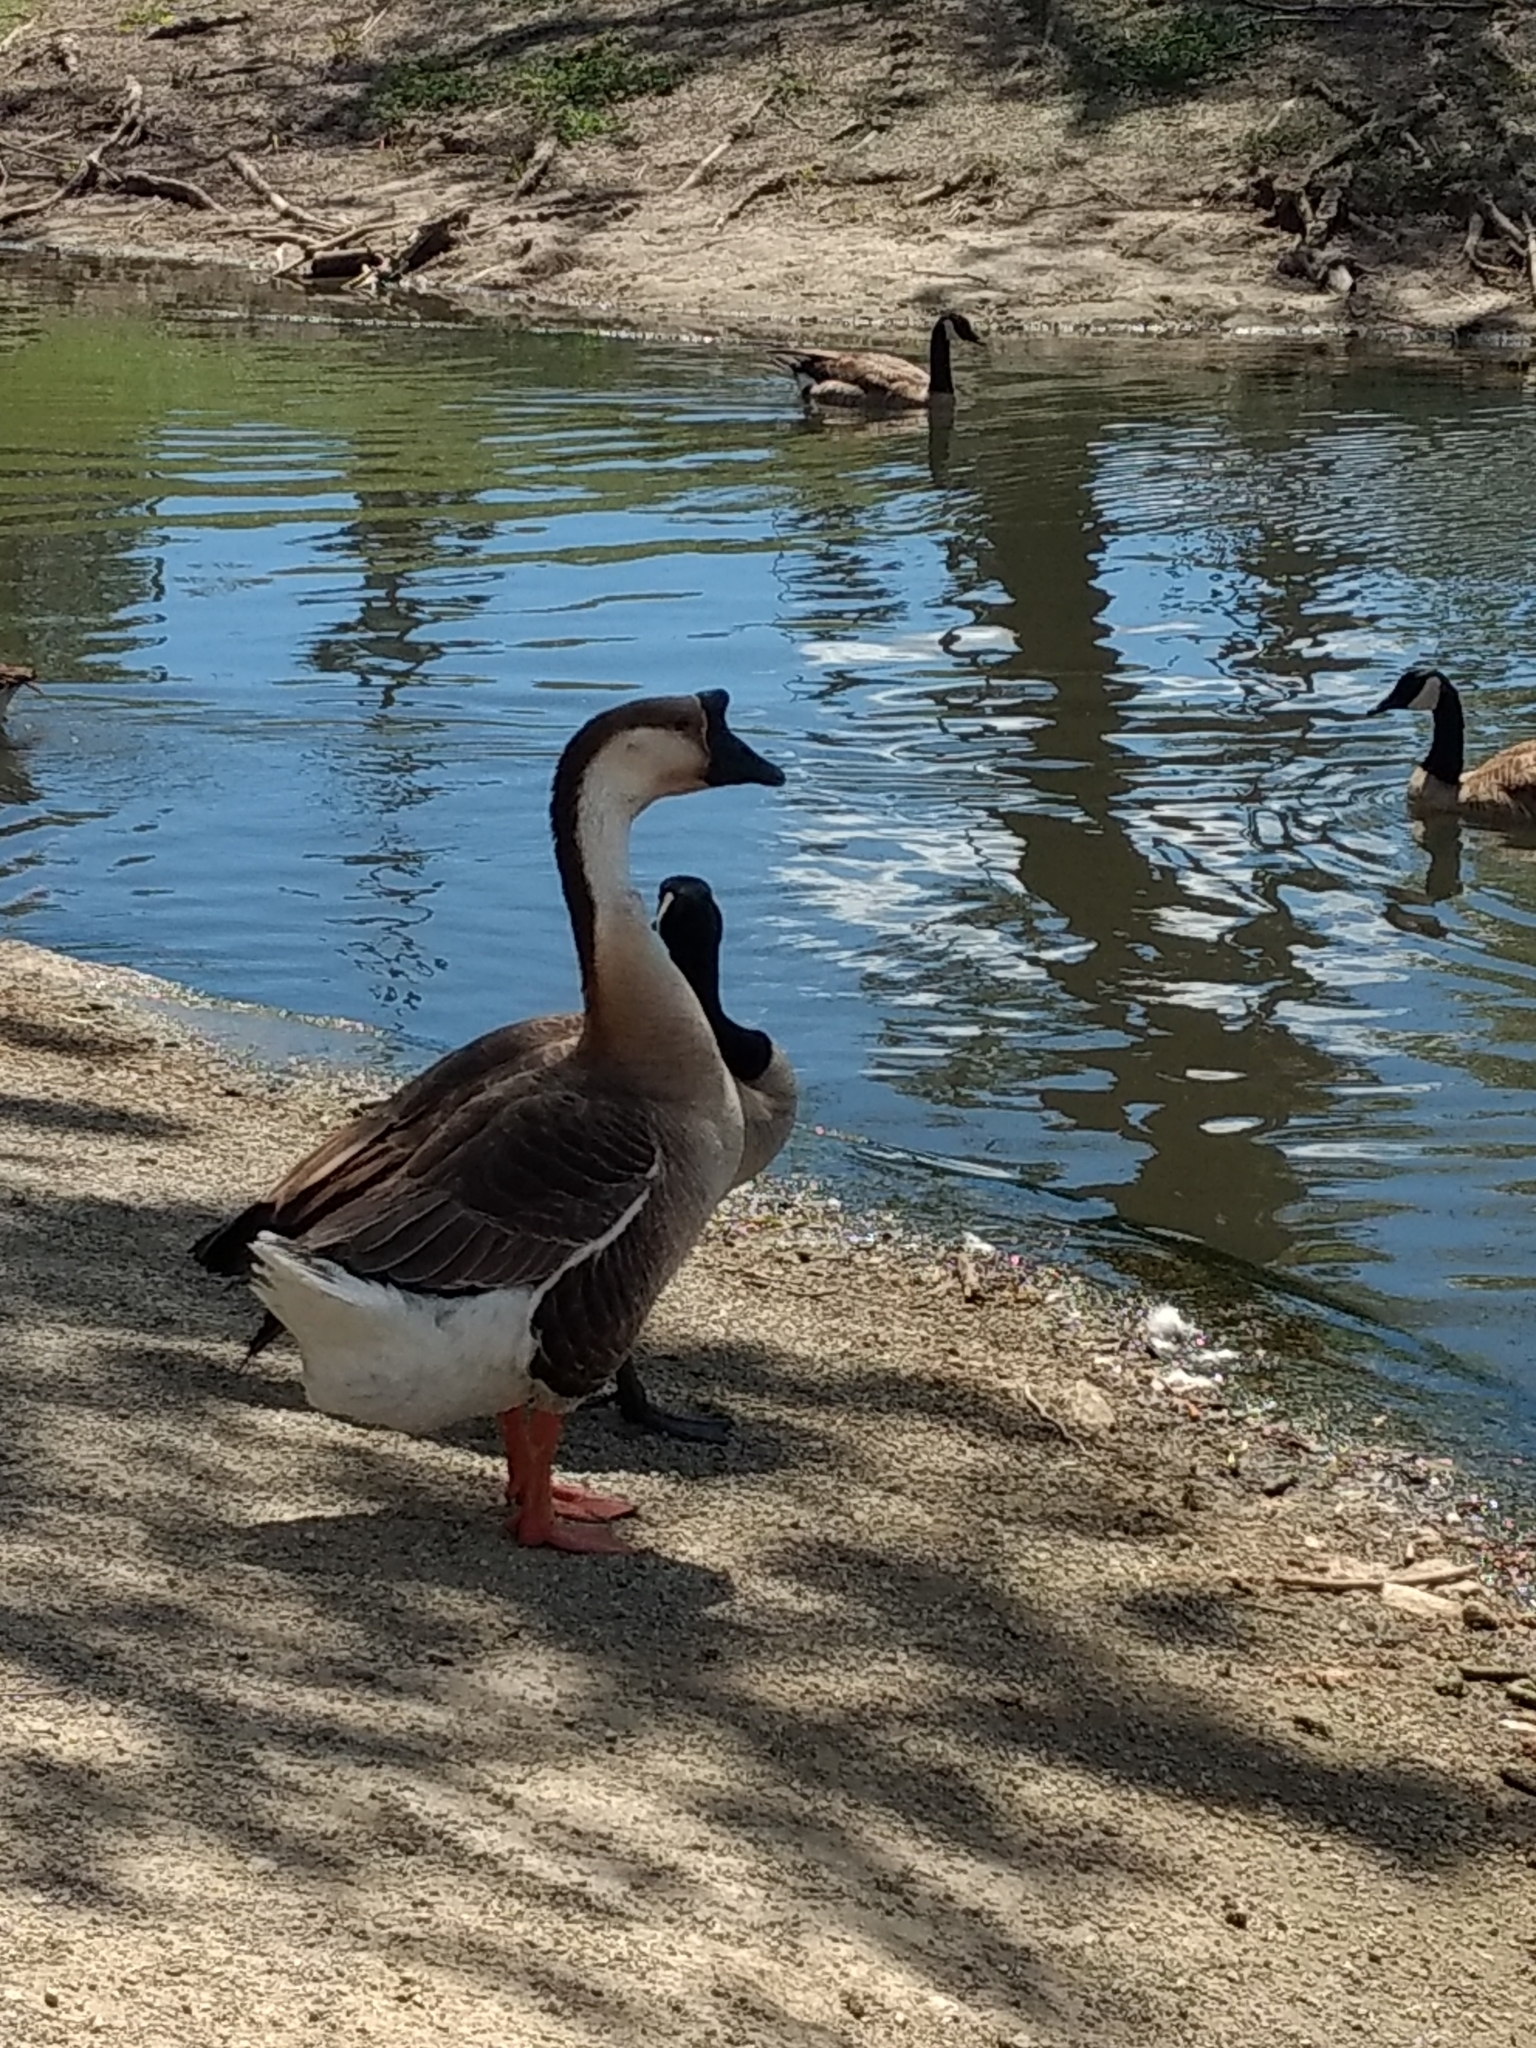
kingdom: Animalia
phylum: Chordata
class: Aves
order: Anseriformes
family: Anatidae
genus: Anser
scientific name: Anser cygnoides
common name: Swan goose
